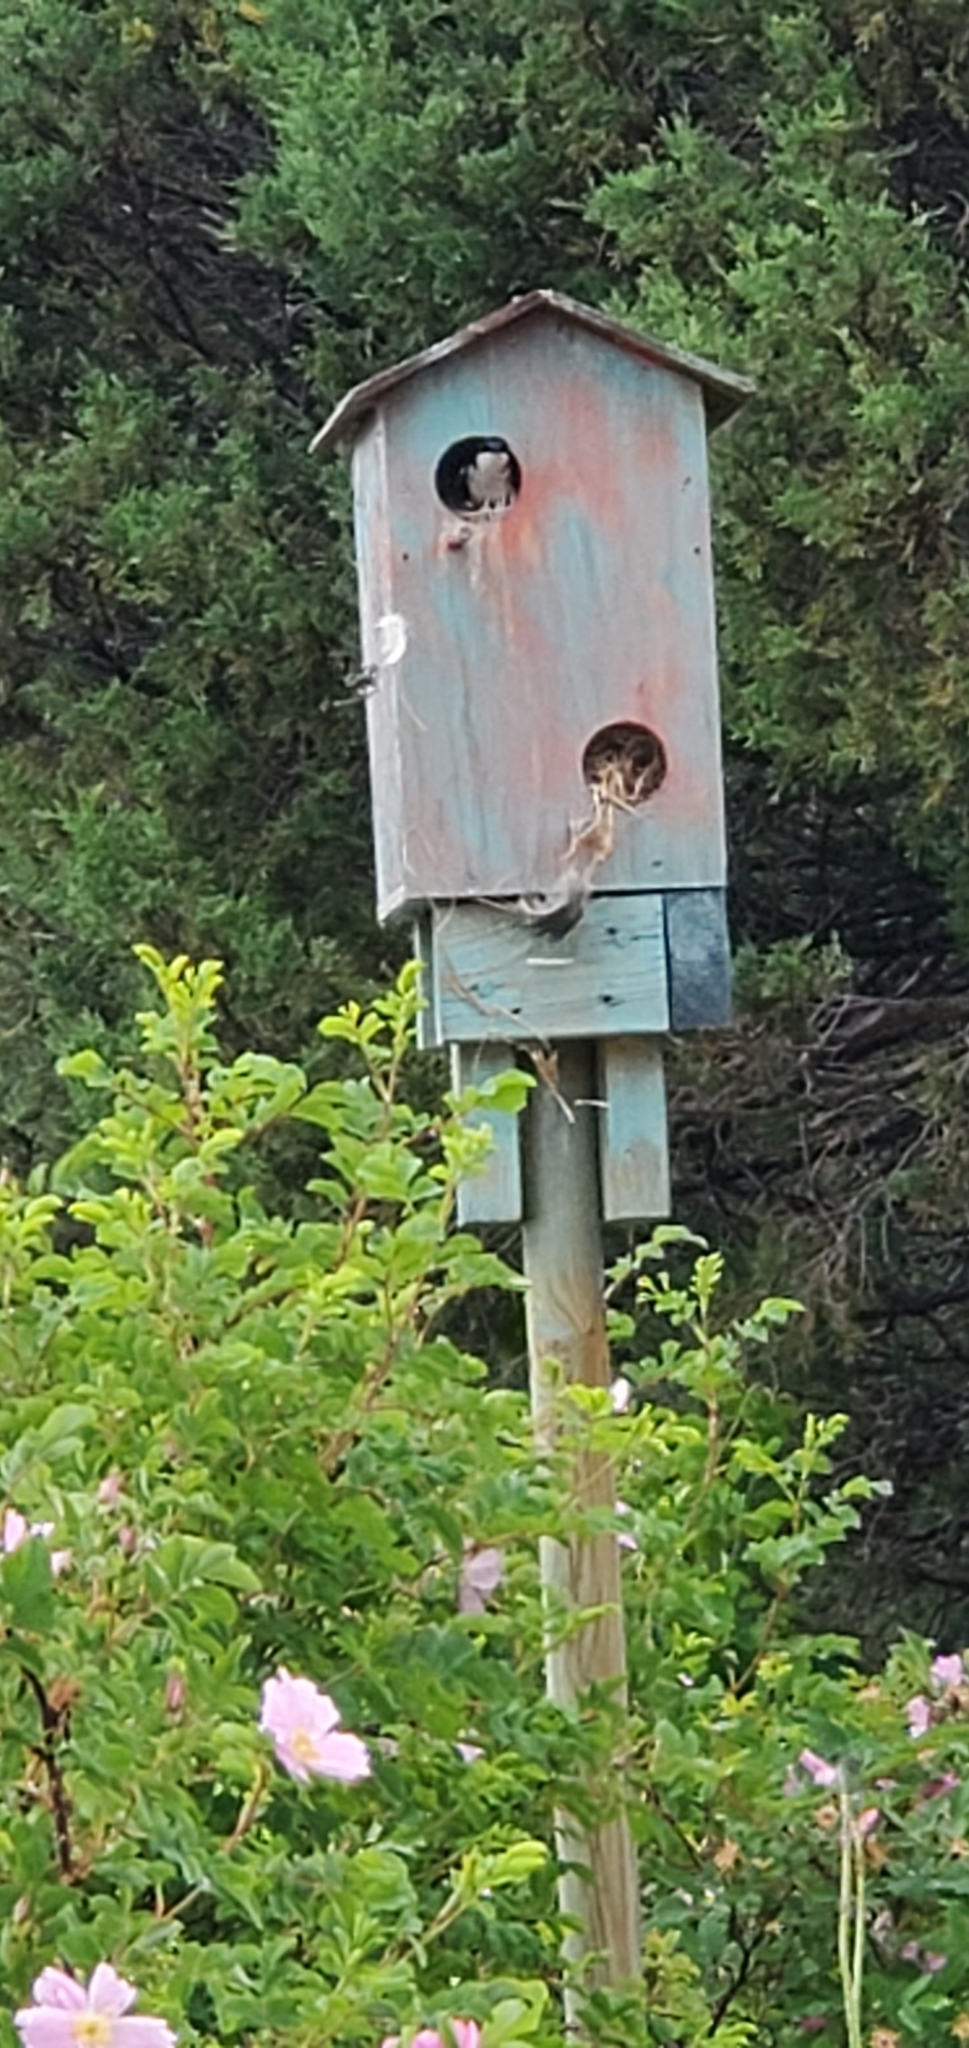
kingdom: Animalia
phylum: Chordata
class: Aves
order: Passeriformes
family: Hirundinidae
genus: Tachycineta
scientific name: Tachycineta bicolor
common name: Tree swallow
